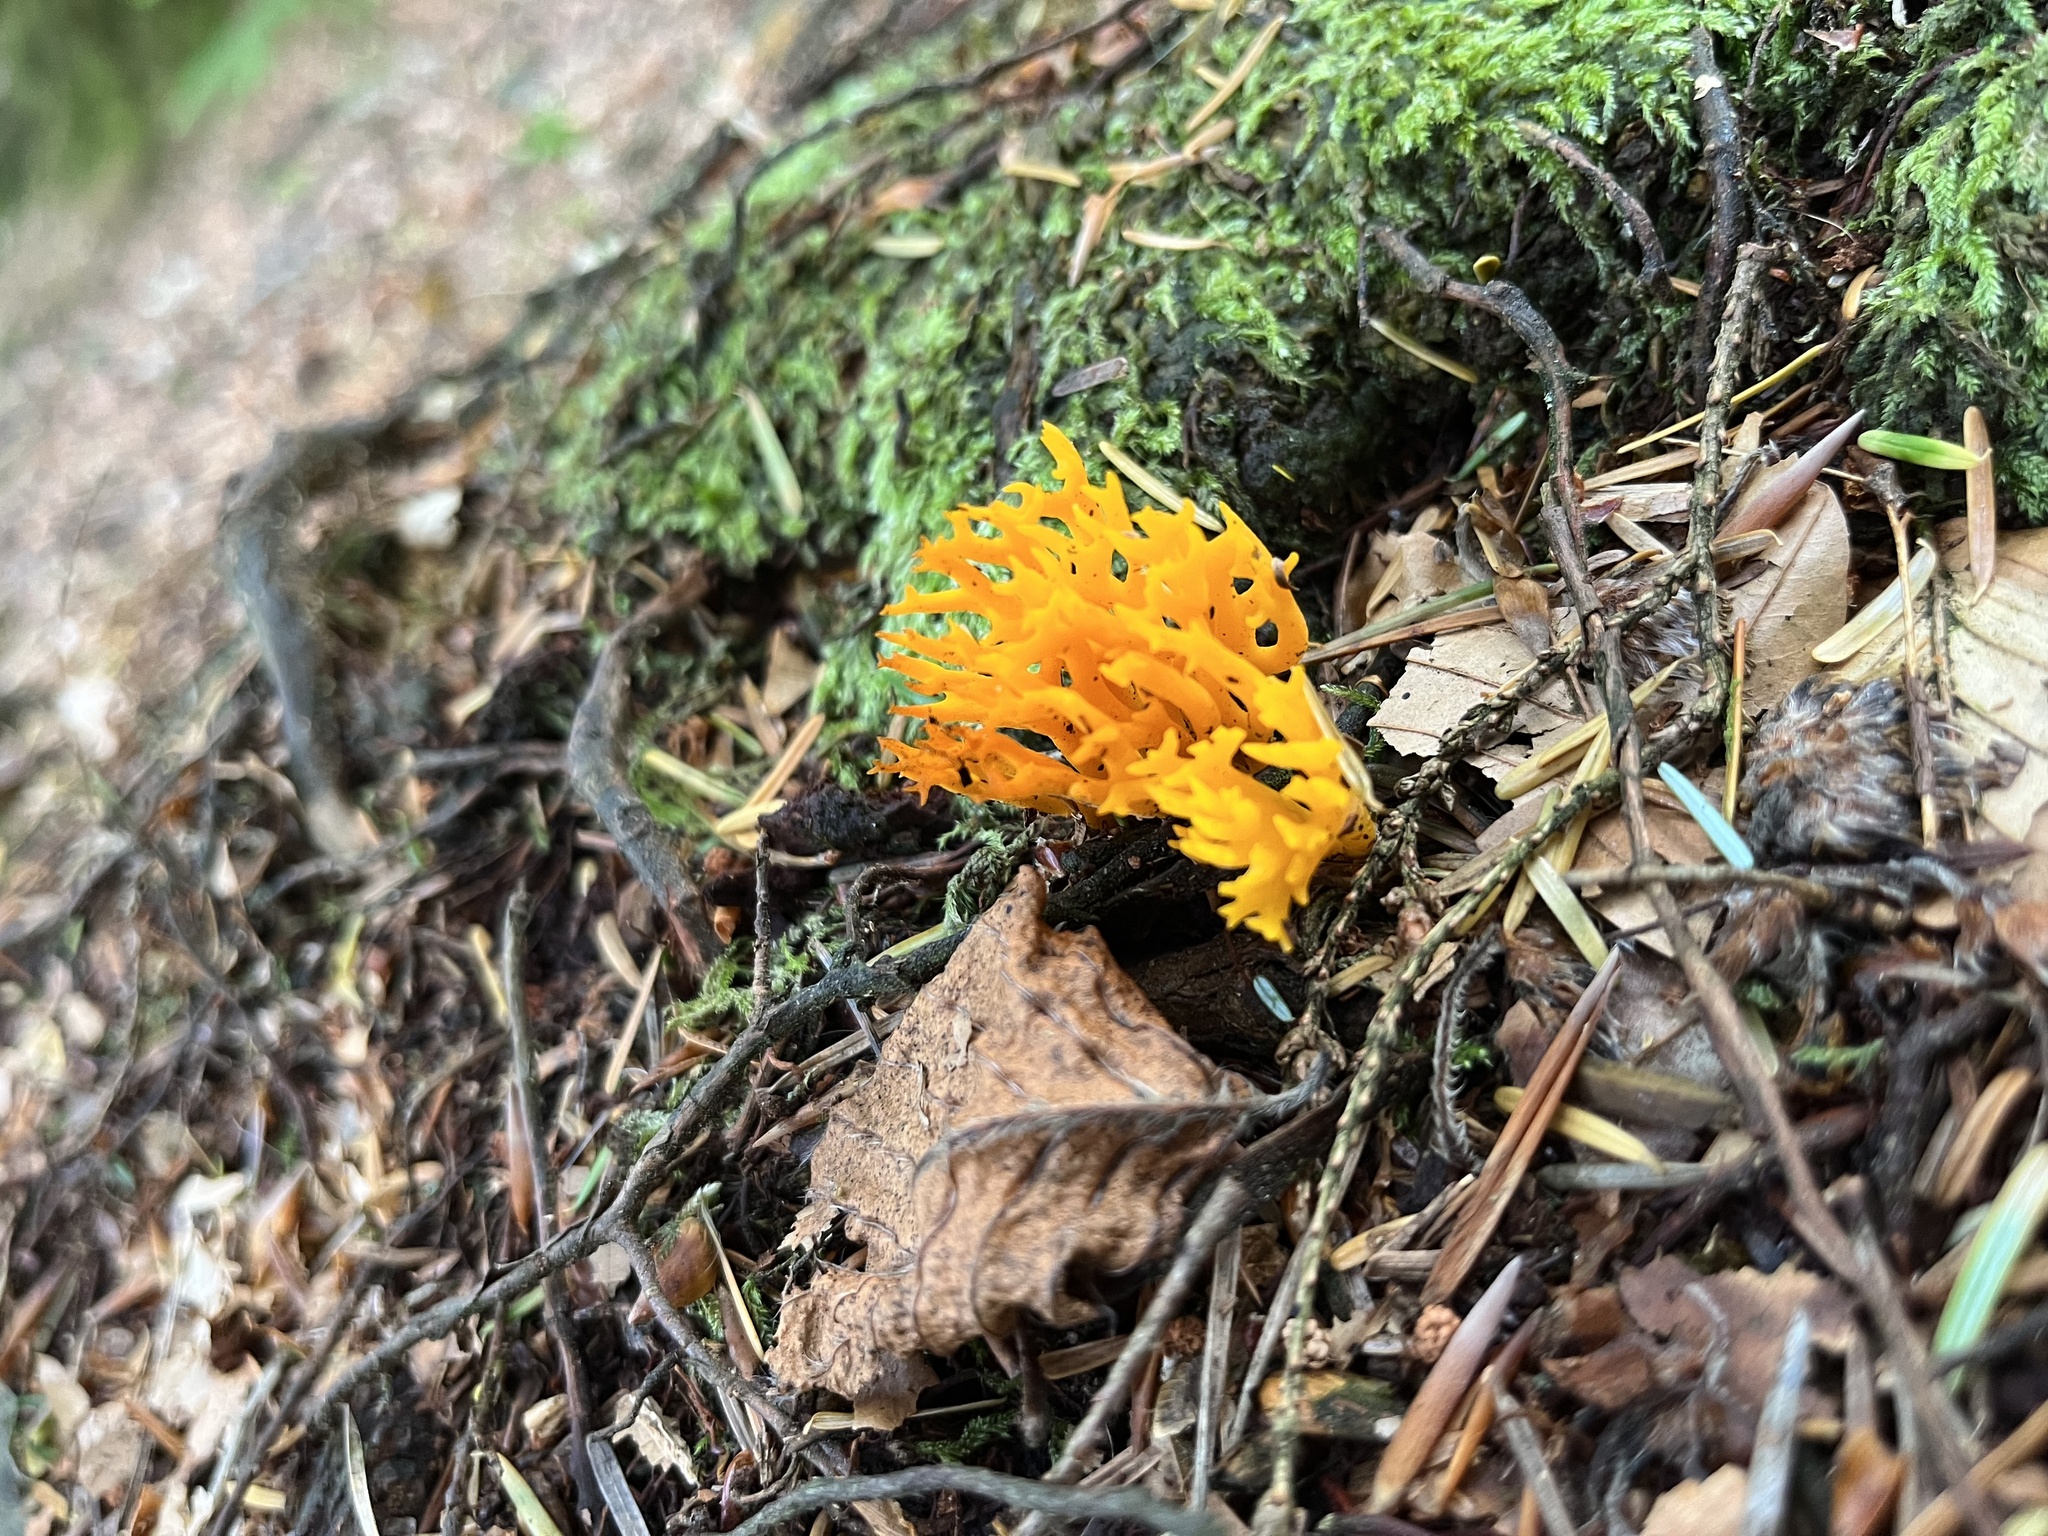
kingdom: Fungi
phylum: Basidiomycota
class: Dacrymycetes
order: Dacrymycetales
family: Dacrymycetaceae
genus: Calocera
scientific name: Calocera viscosa
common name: Yellow stagshorn
